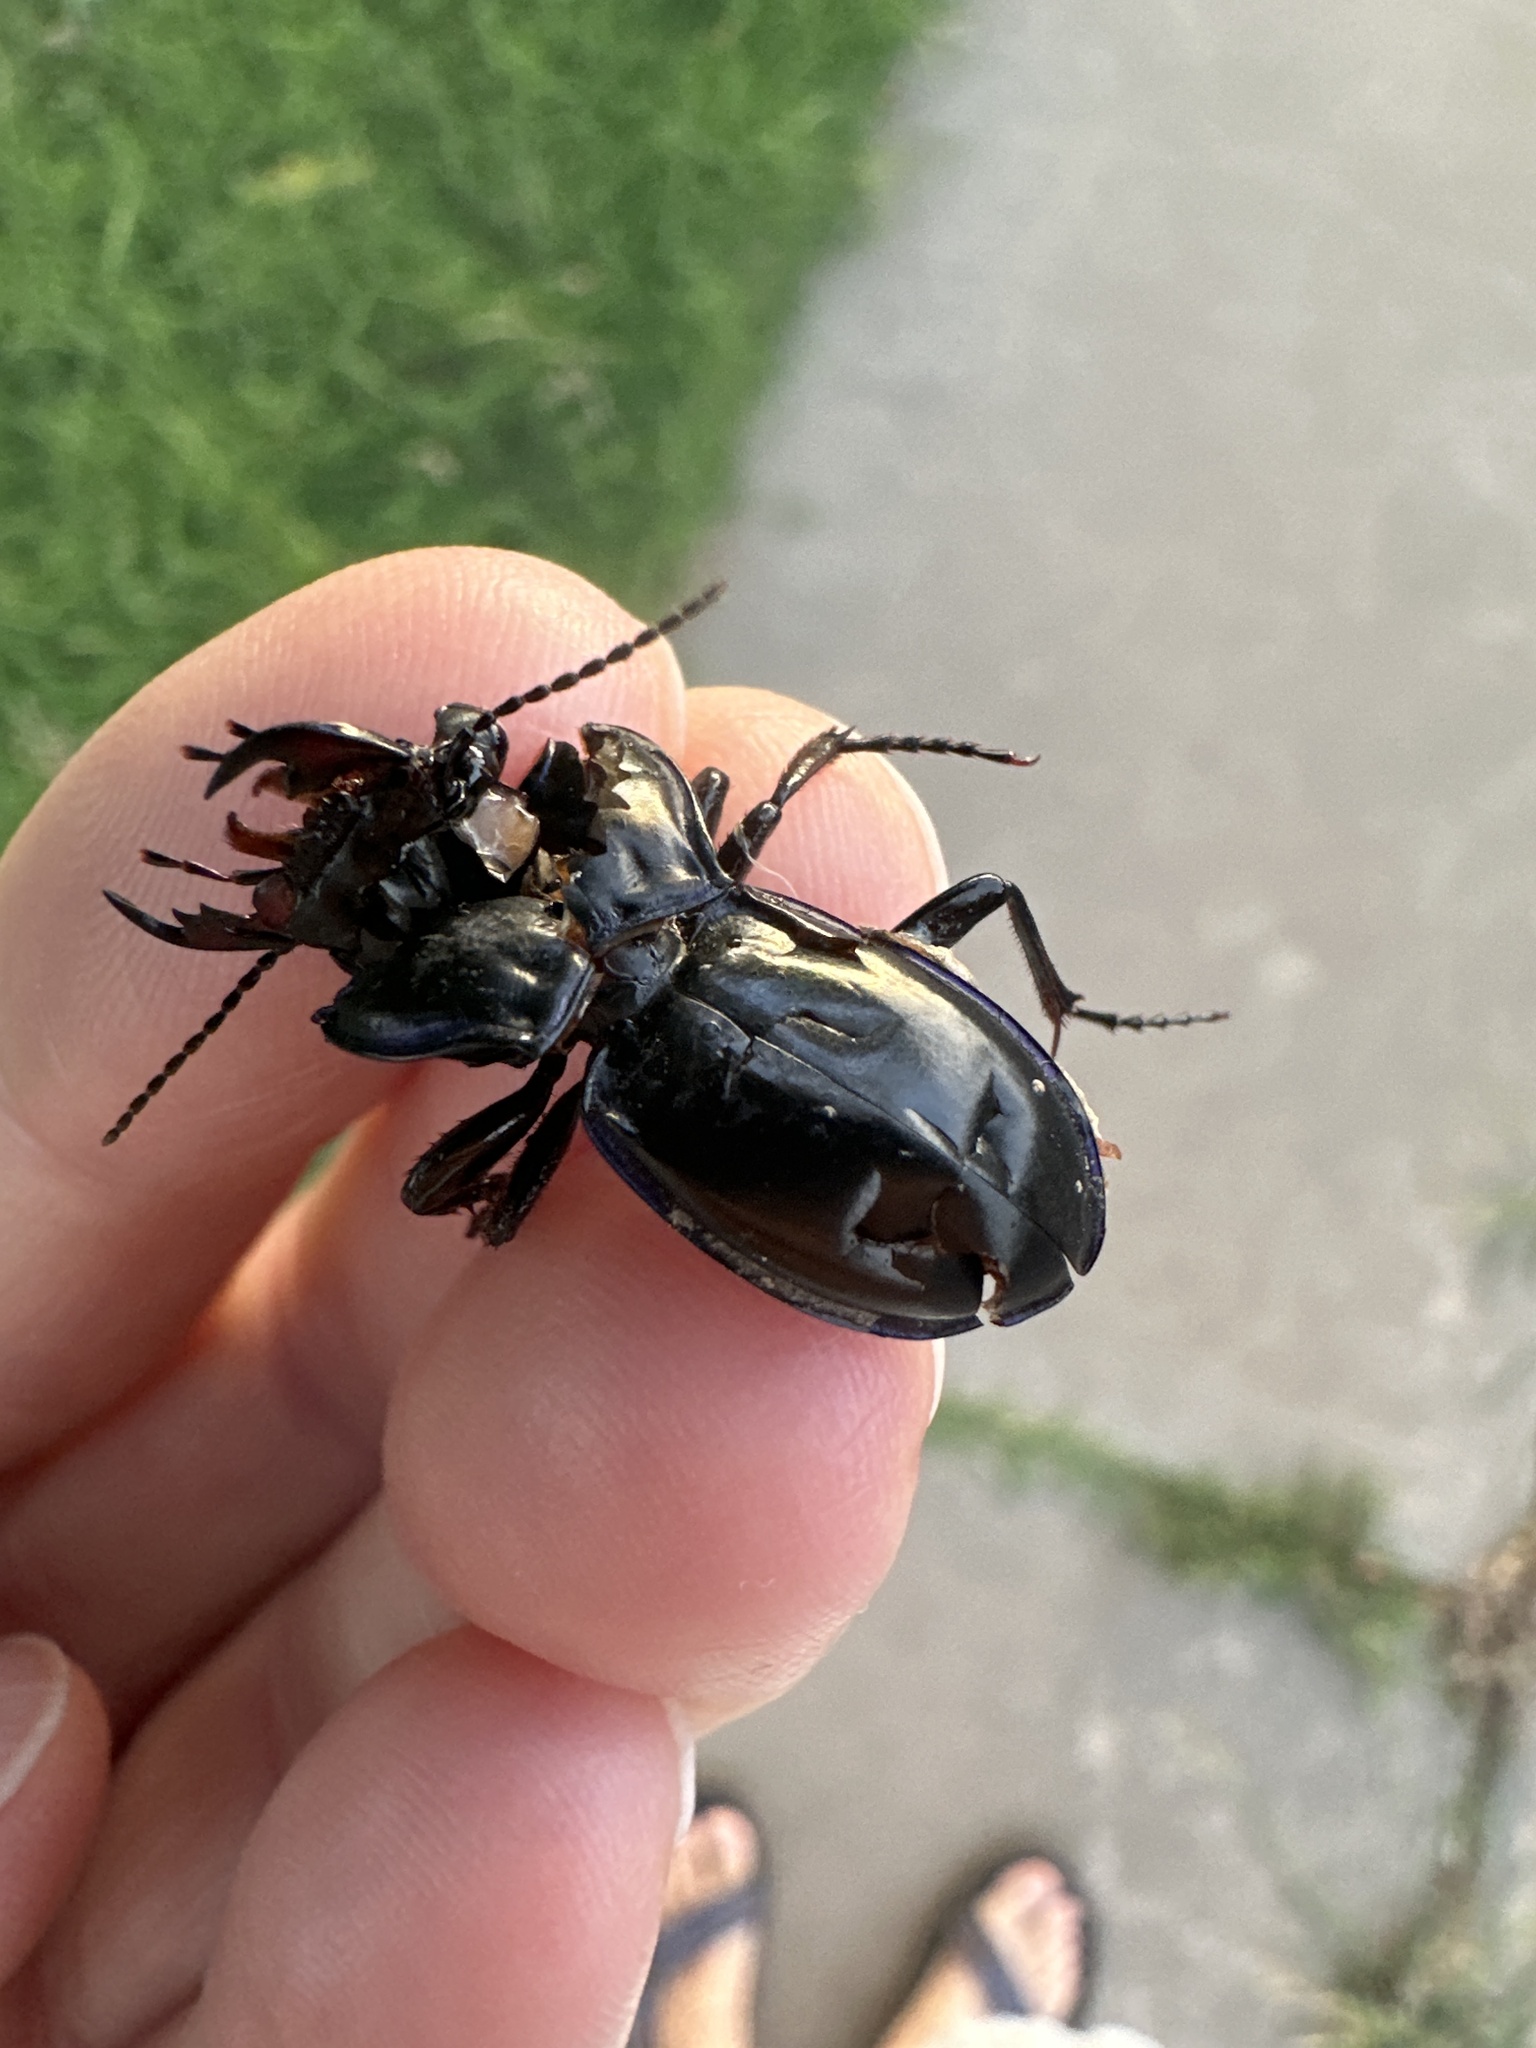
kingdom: Animalia
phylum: Arthropoda
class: Insecta
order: Coleoptera
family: Carabidae
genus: Pasimachus
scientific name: Pasimachus elongatus
